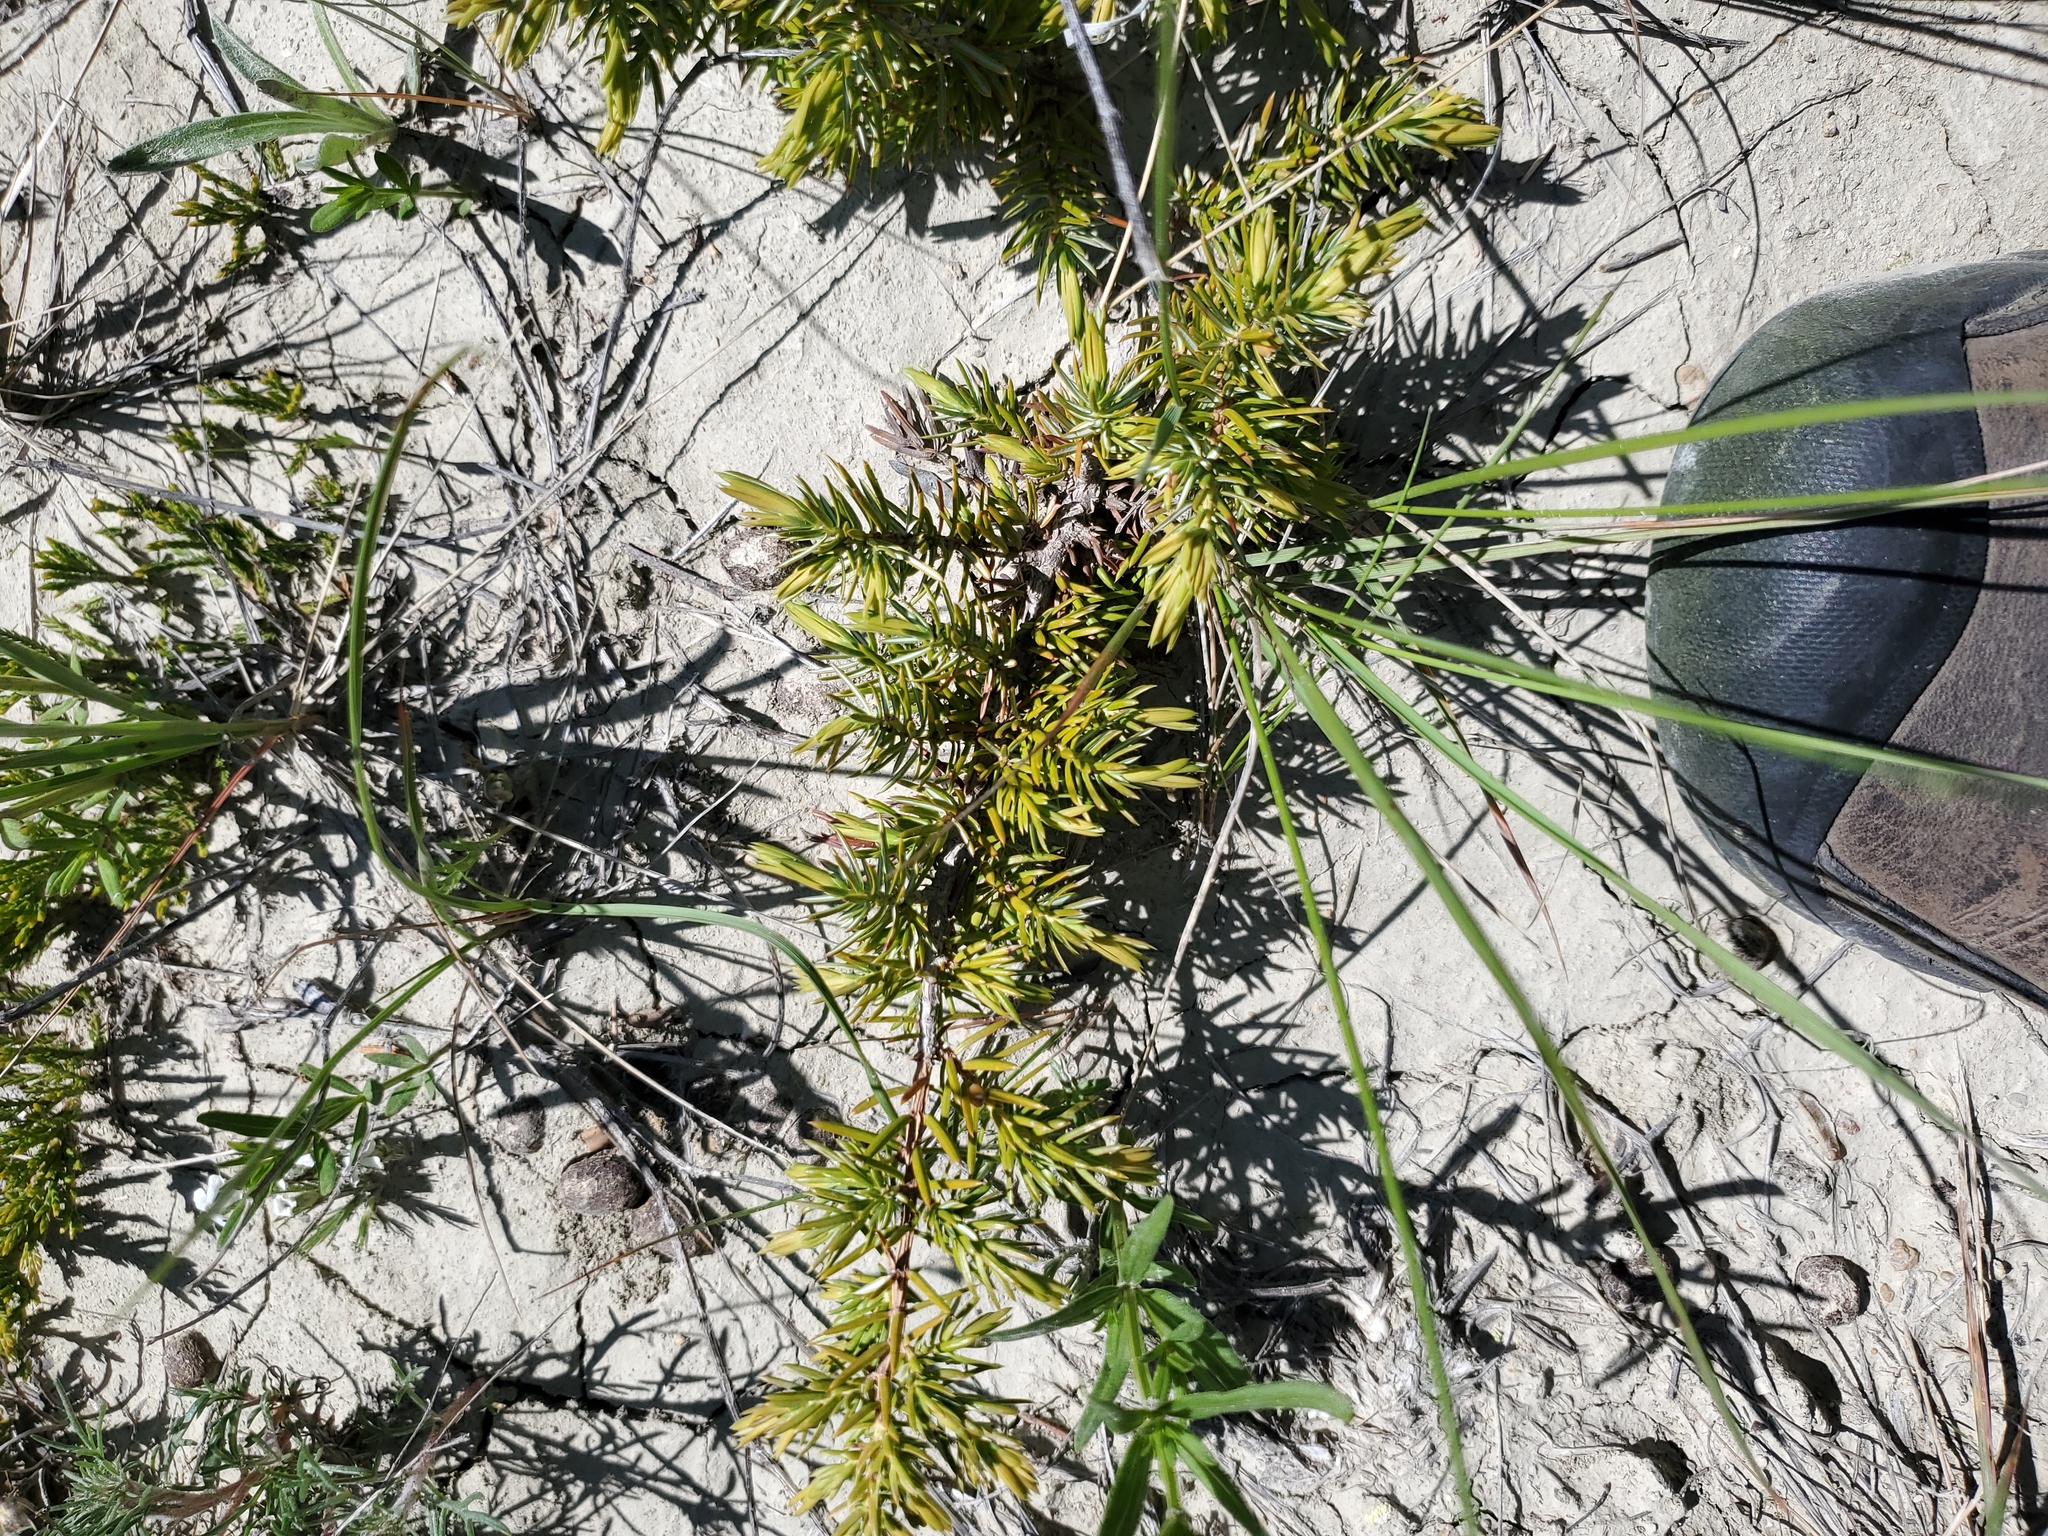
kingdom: Plantae
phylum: Tracheophyta
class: Pinopsida
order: Pinales
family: Cupressaceae
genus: Juniperus
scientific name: Juniperus communis
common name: Common juniper
